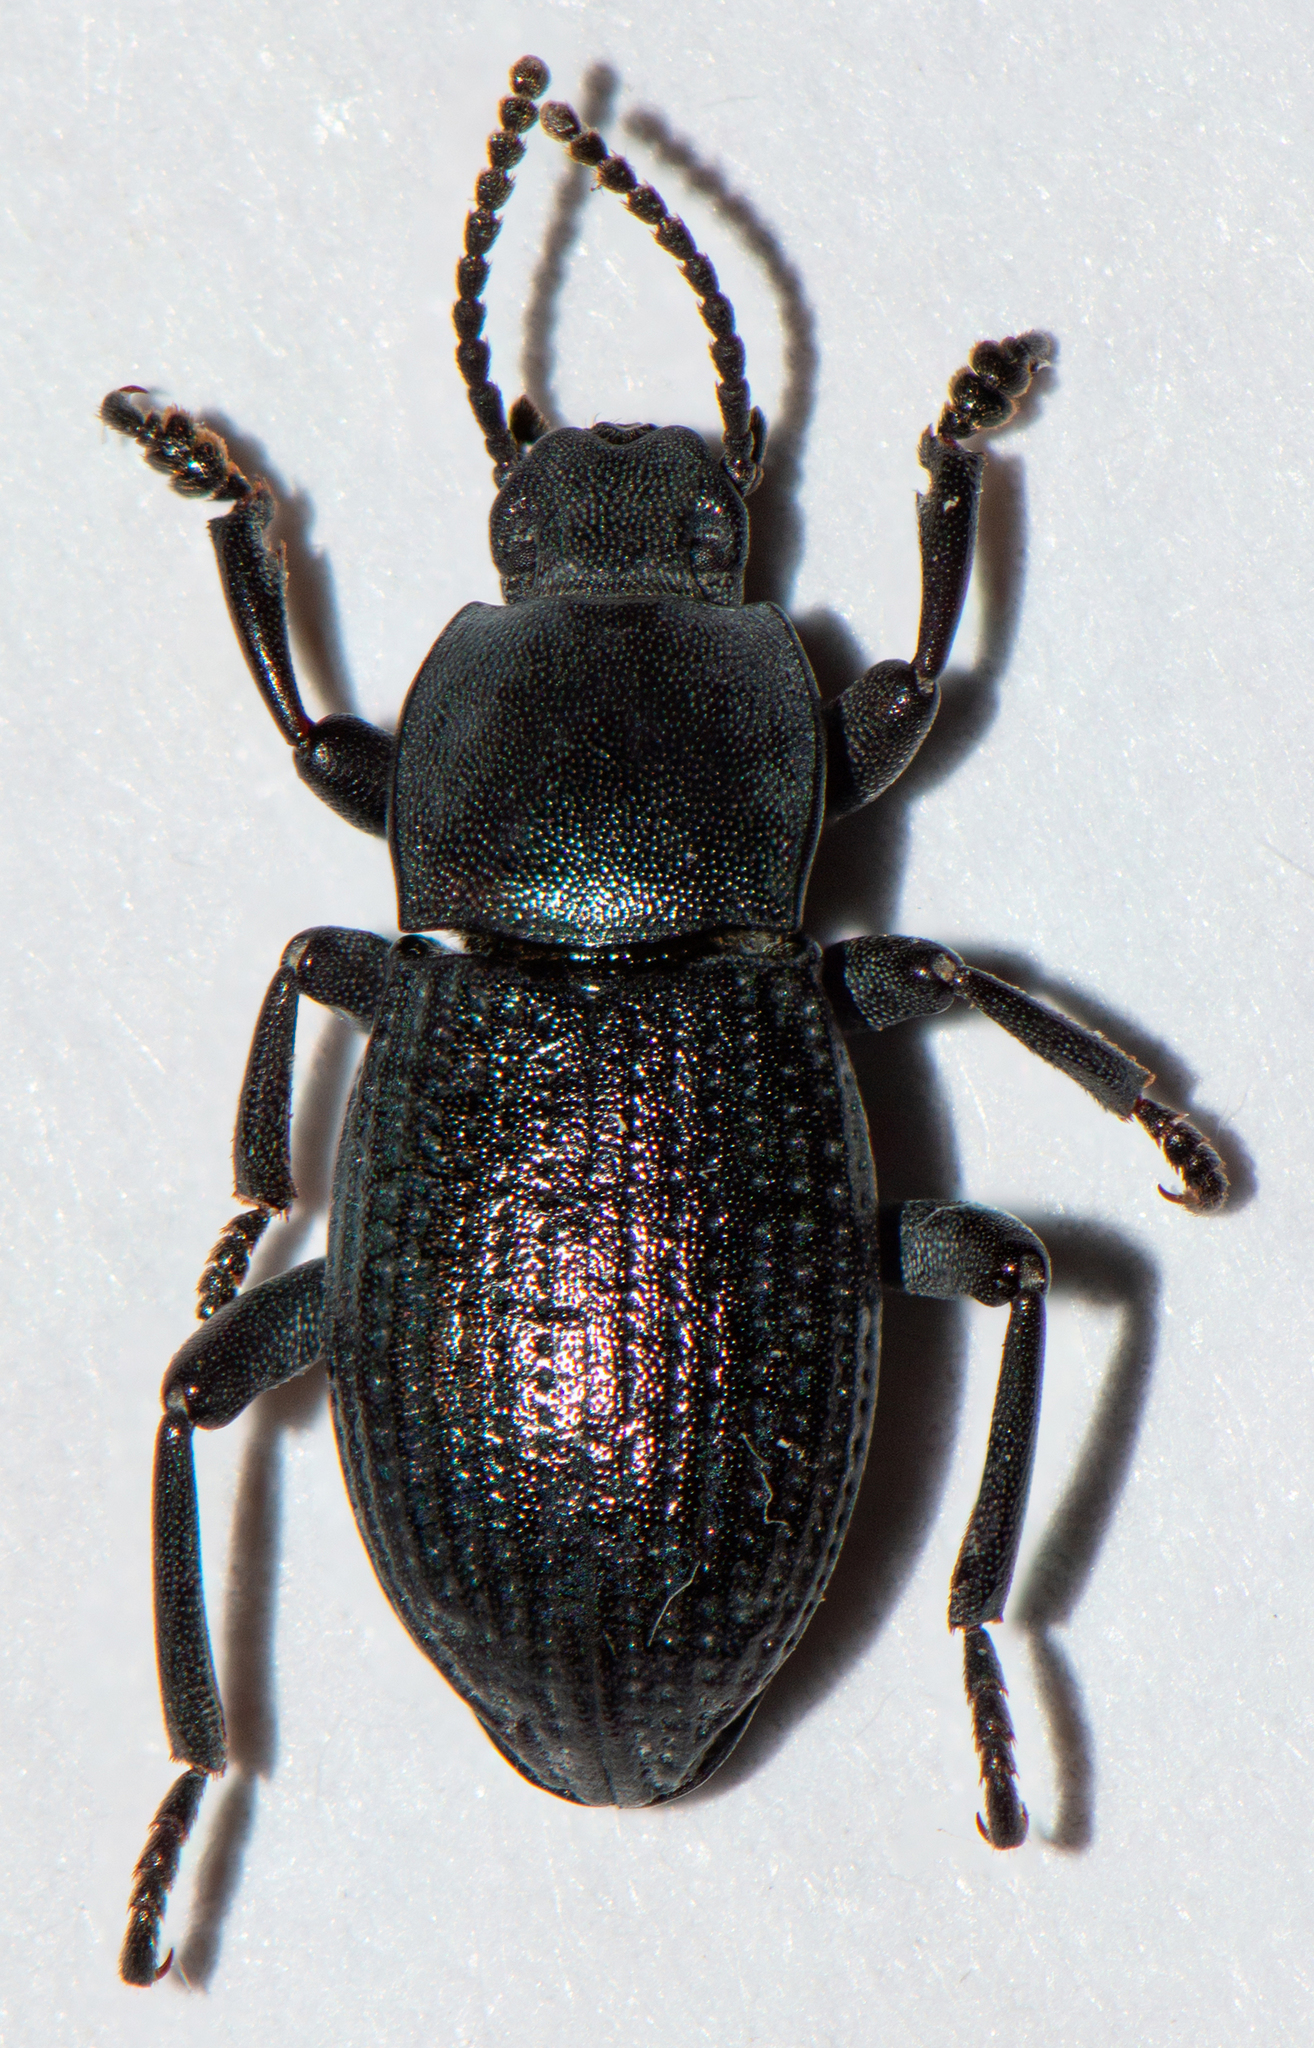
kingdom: Animalia
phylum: Arthropoda
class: Insecta
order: Coleoptera
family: Tenebrionidae
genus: Dendarus
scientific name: Dendarus
